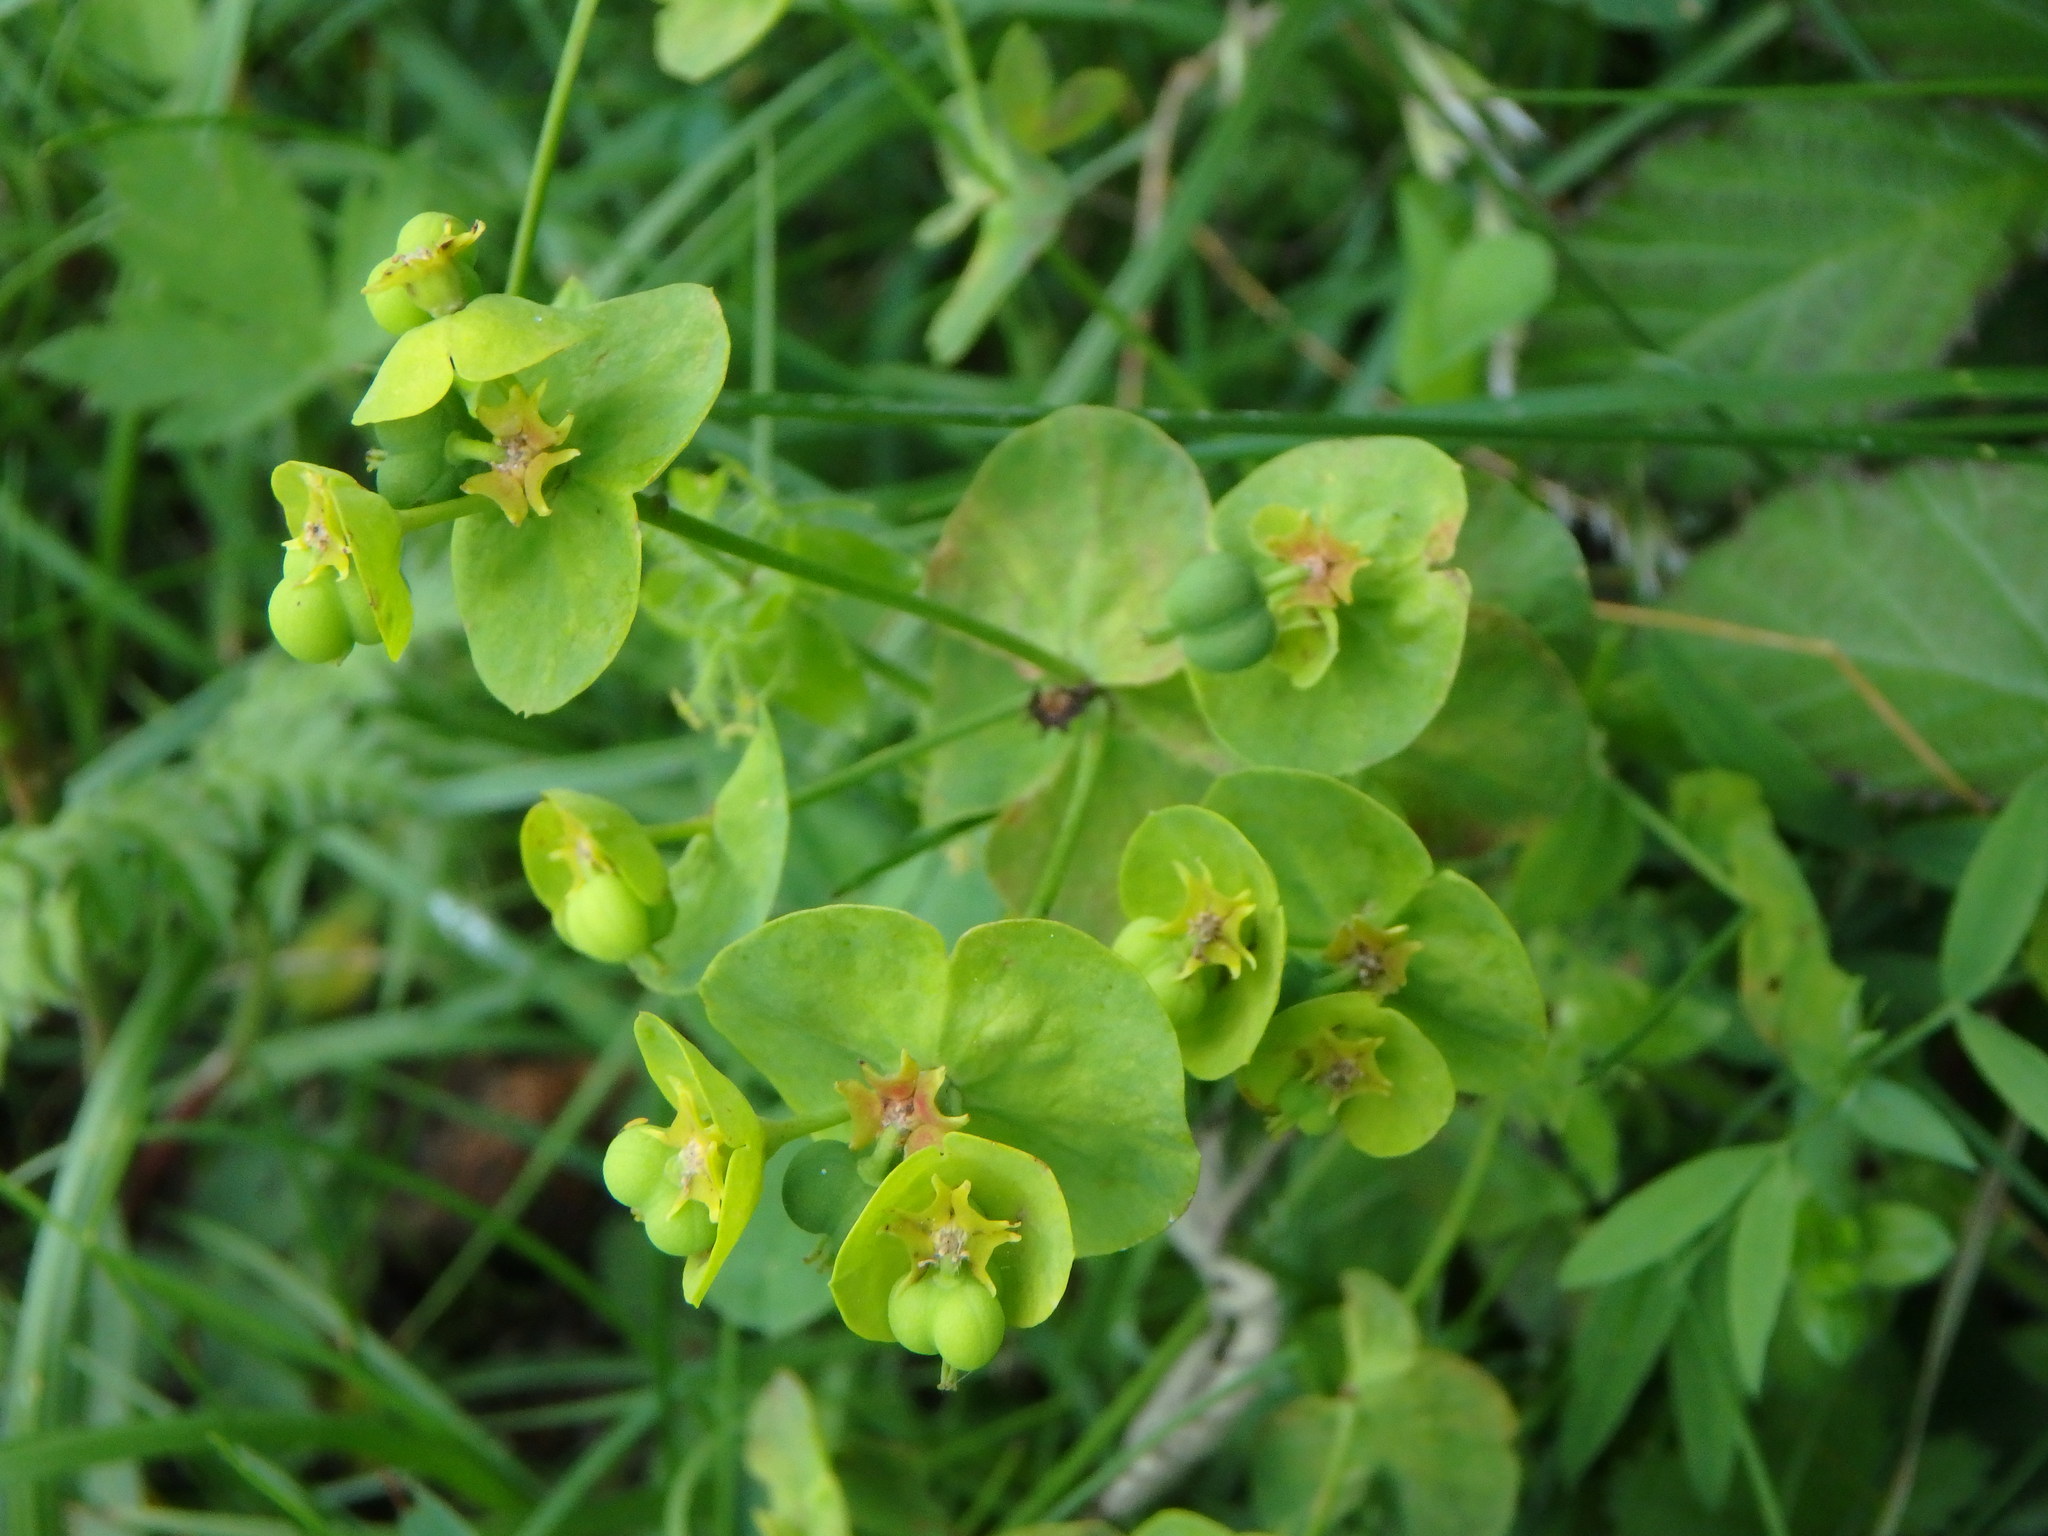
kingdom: Plantae
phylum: Tracheophyta
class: Magnoliopsida
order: Malpighiales
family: Euphorbiaceae
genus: Euphorbia
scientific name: Euphorbia amygdaloides
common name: Wood spurge
